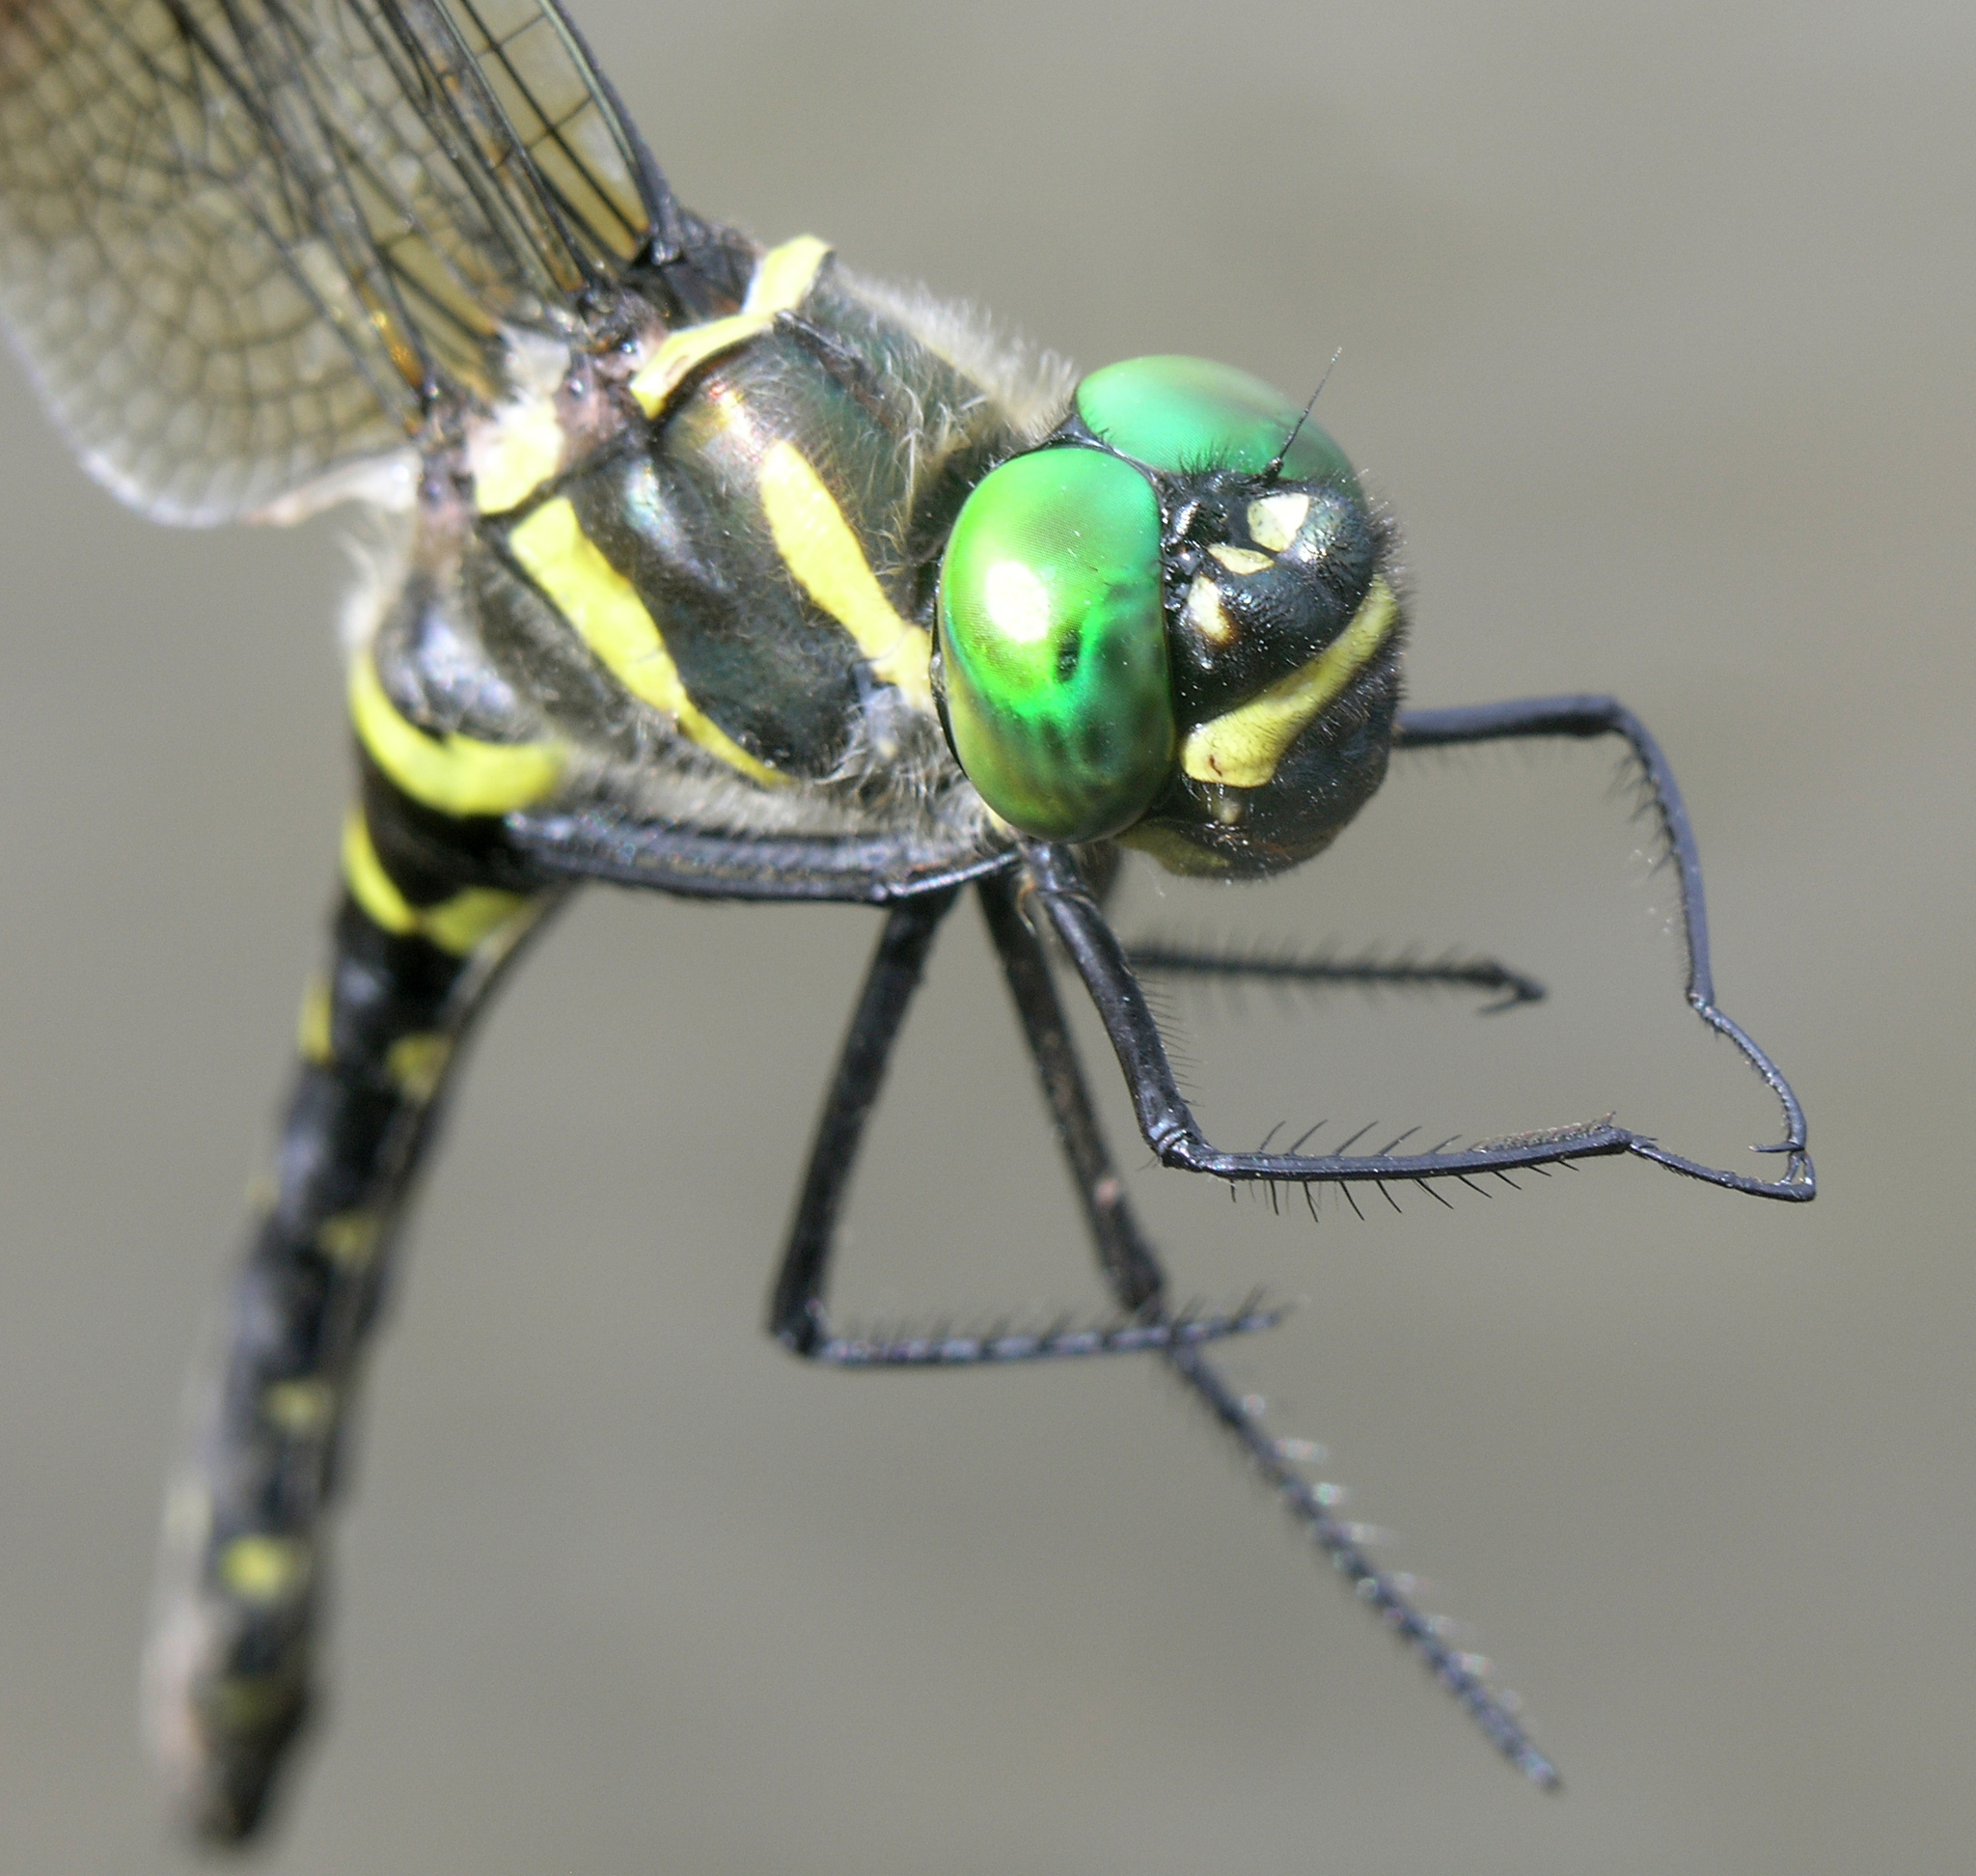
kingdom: Animalia
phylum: Arthropoda
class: Insecta
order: Odonata
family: Macromiidae
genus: Macromia
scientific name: Macromia amphigena
